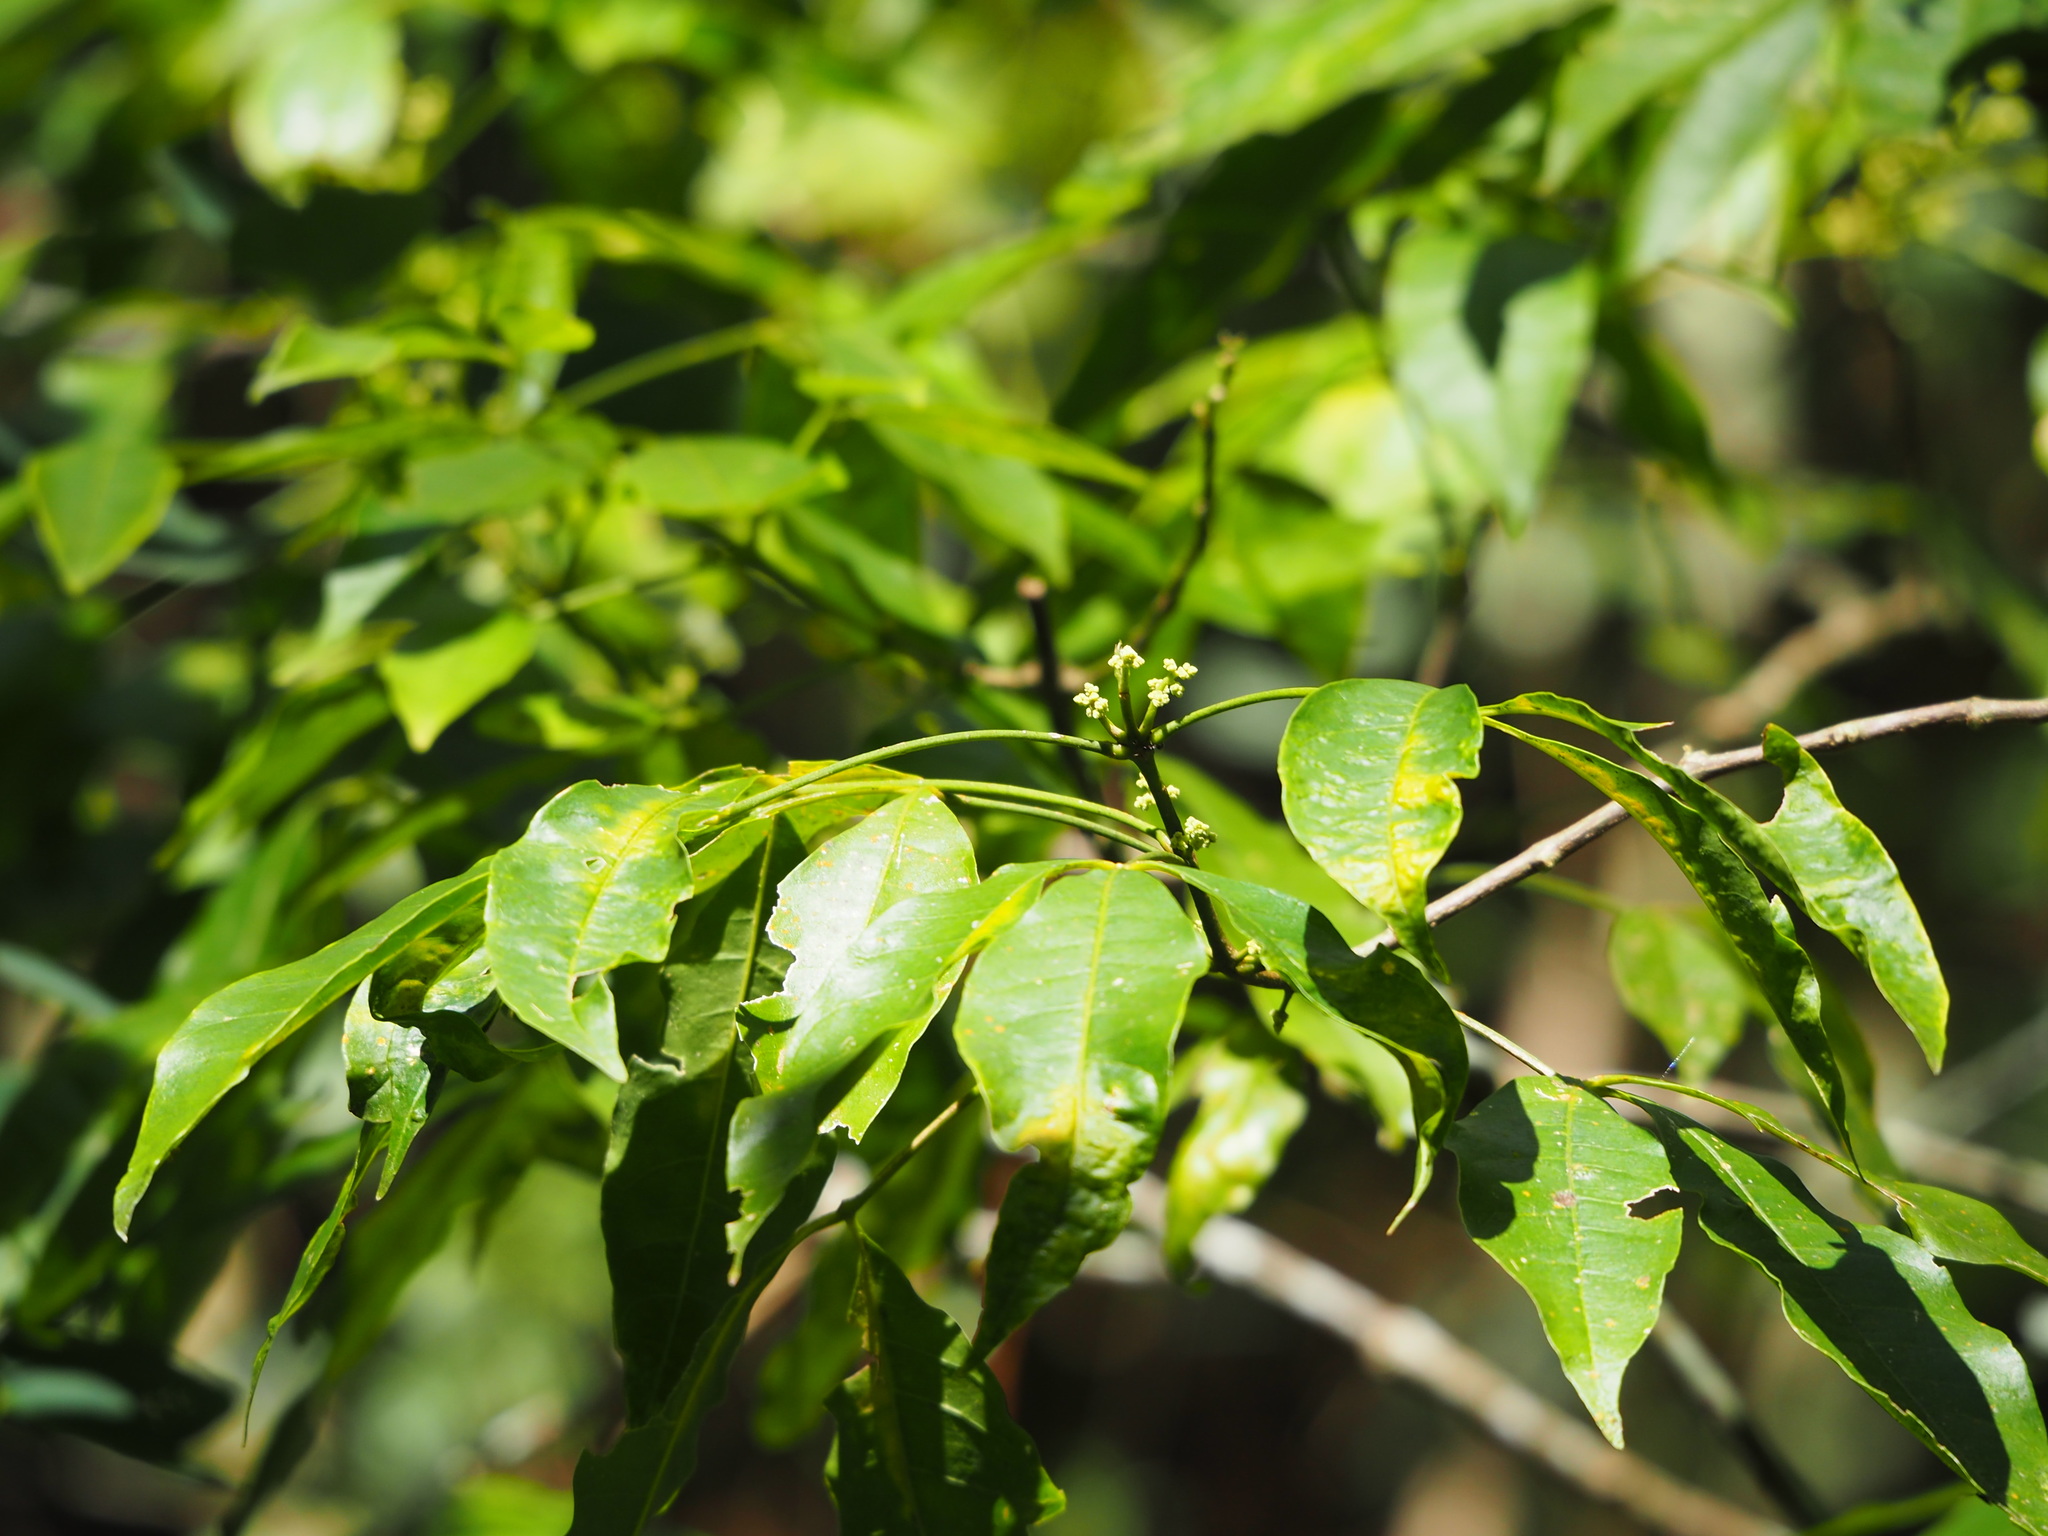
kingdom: Plantae
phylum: Tracheophyta
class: Magnoliopsida
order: Sapindales
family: Rutaceae
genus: Melicope
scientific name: Melicope pteleifolia
